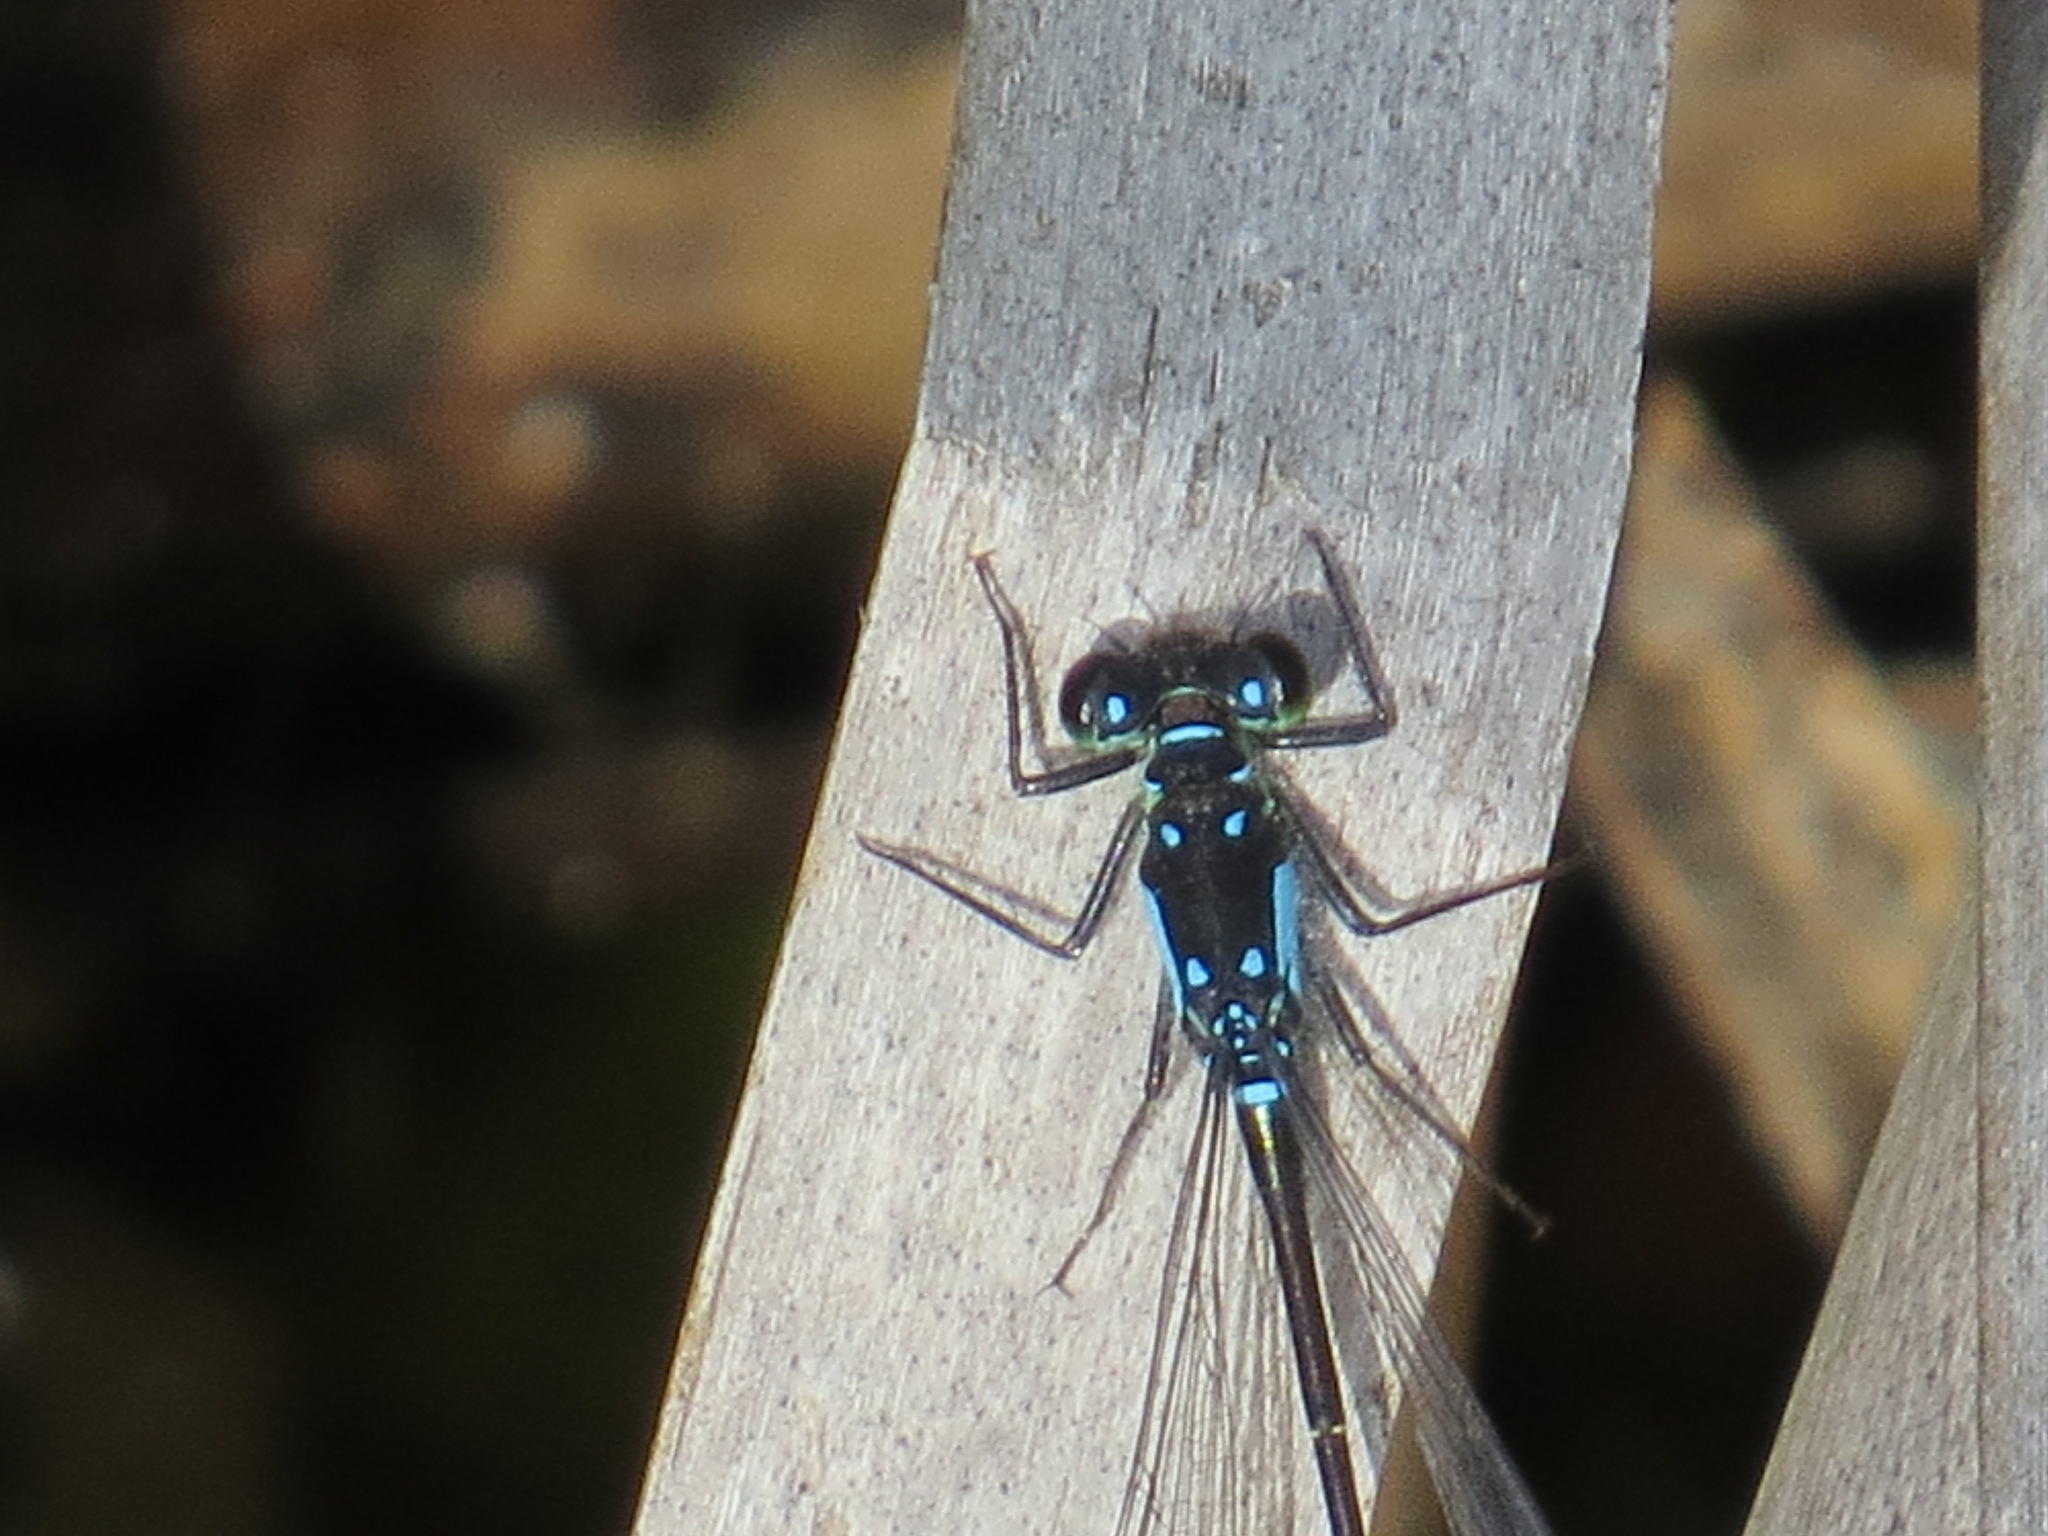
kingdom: Animalia
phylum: Arthropoda
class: Insecta
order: Odonata
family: Coenagrionidae
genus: Ischnura
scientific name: Ischnura cervula
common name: Pacific forktail
